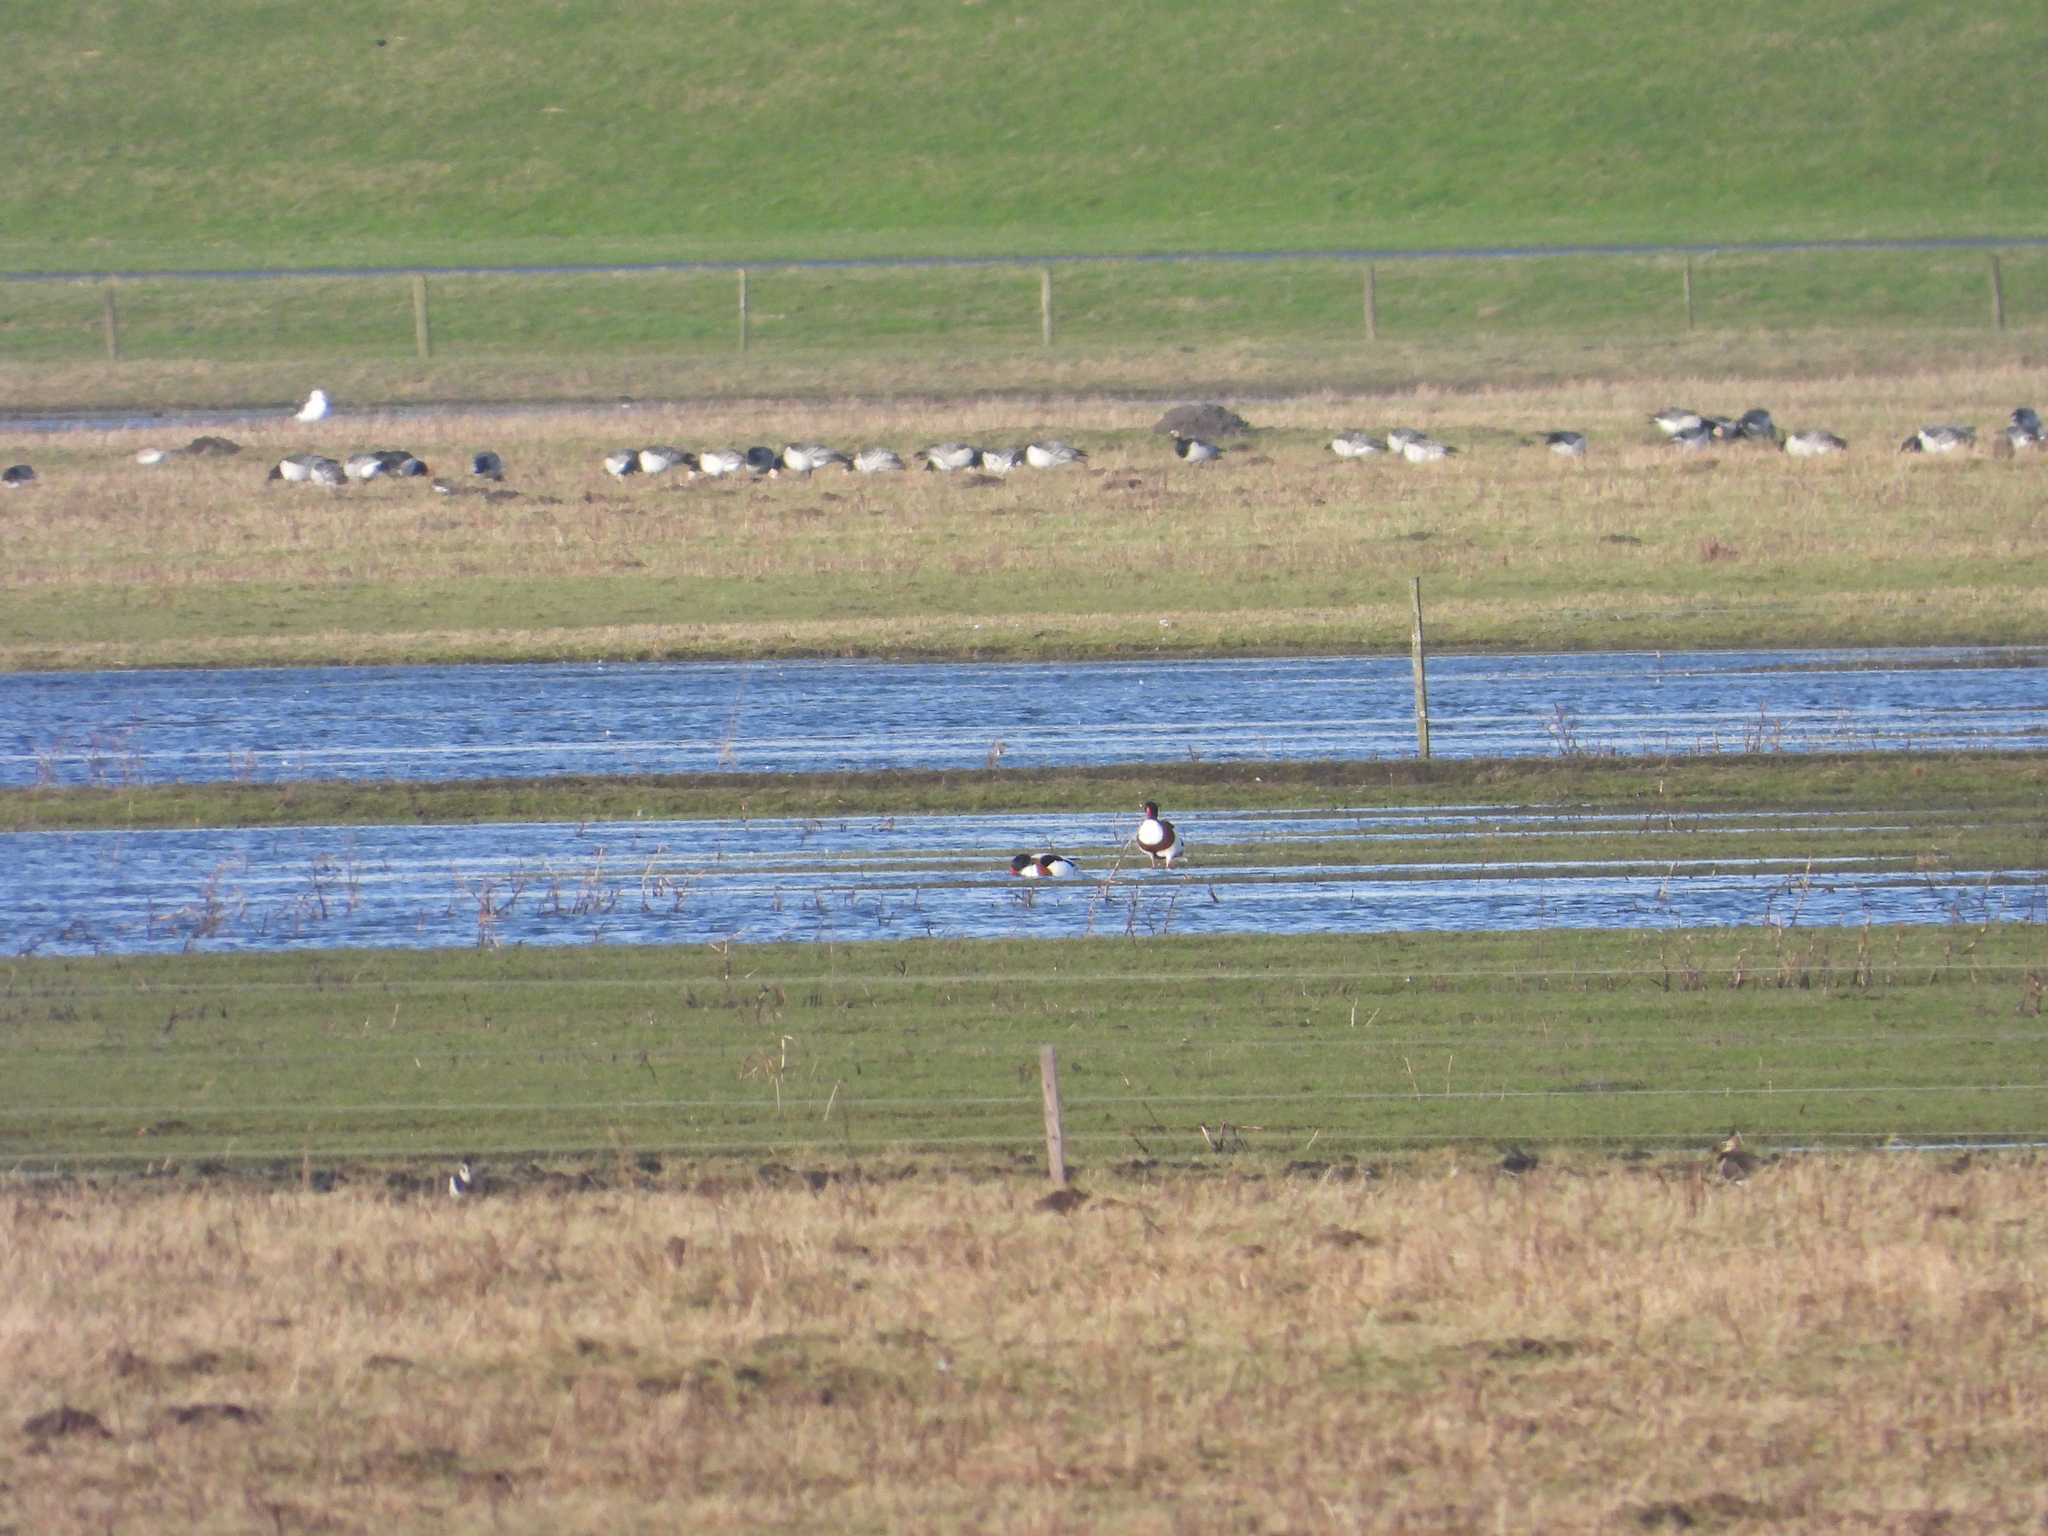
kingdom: Animalia
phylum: Chordata
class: Aves
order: Anseriformes
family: Anatidae
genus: Tadorna
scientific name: Tadorna tadorna
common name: Common shelduck
